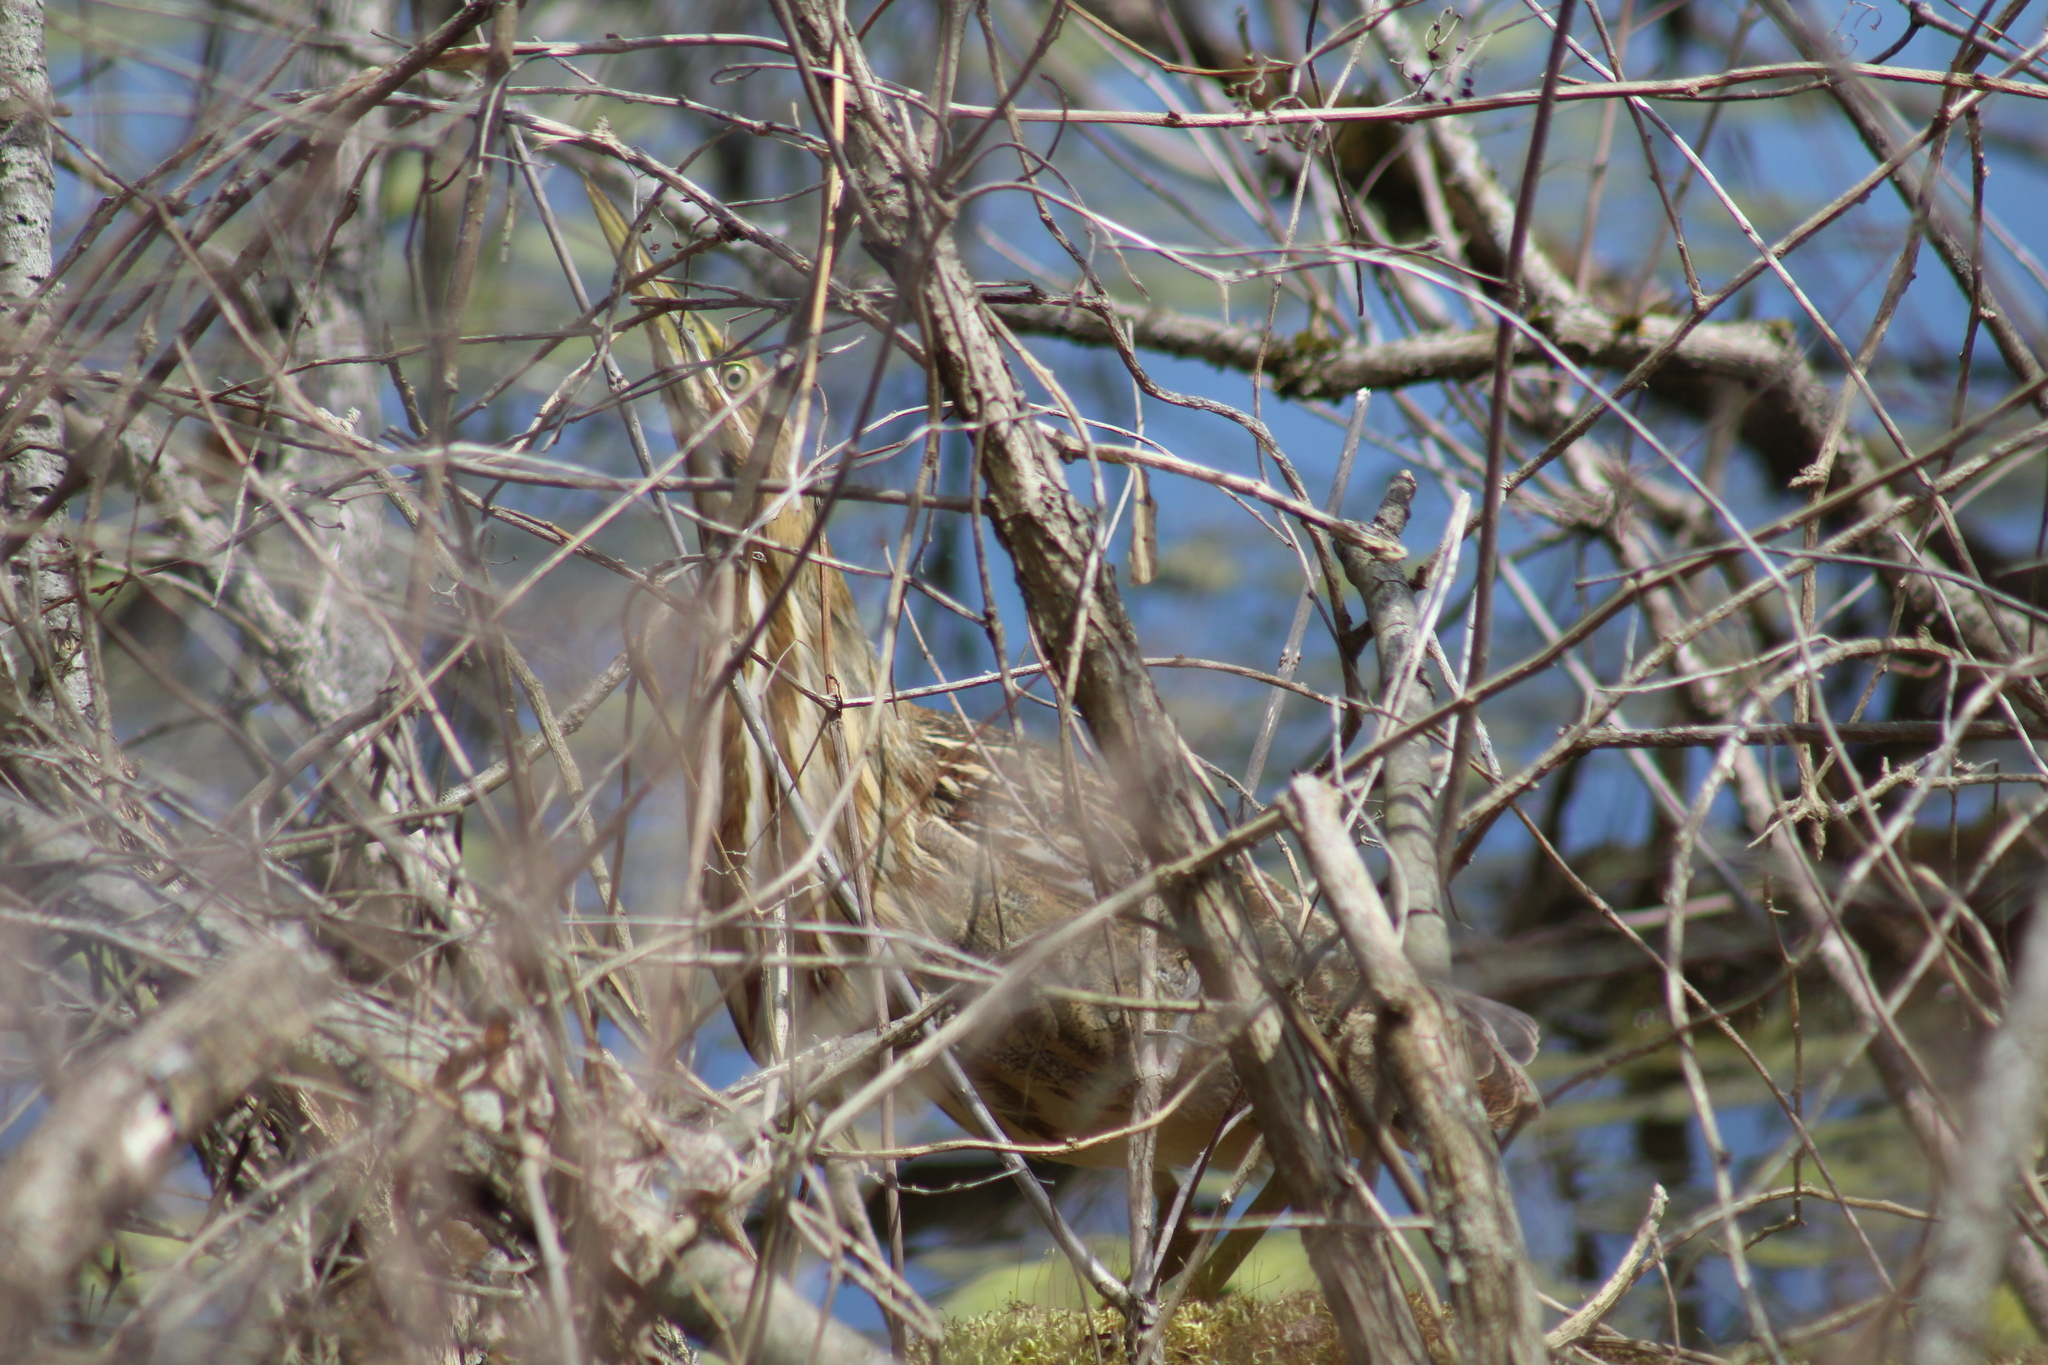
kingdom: Animalia
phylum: Chordata
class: Aves
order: Pelecaniformes
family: Ardeidae
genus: Botaurus
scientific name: Botaurus lentiginosus
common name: American bittern
